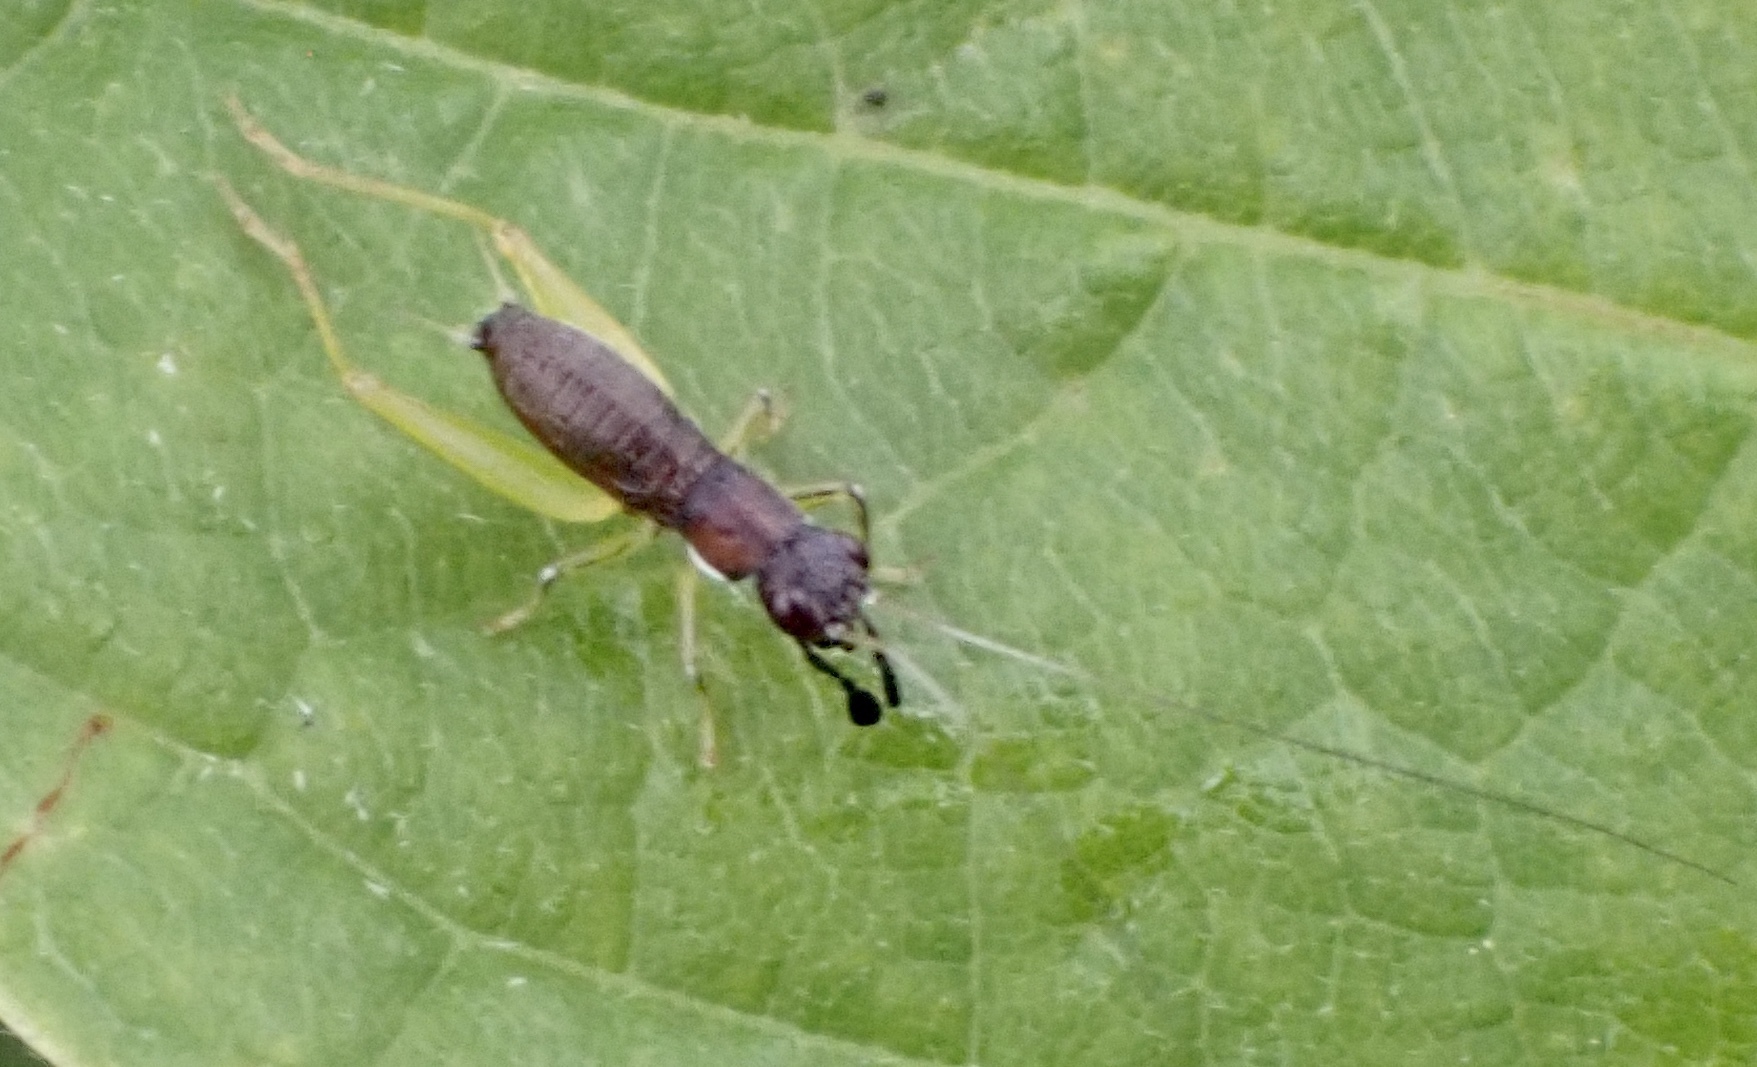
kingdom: Animalia
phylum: Arthropoda
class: Insecta
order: Orthoptera
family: Trigonidiidae
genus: Phyllopalpus
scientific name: Phyllopalpus pulchellus
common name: Handsome trig
